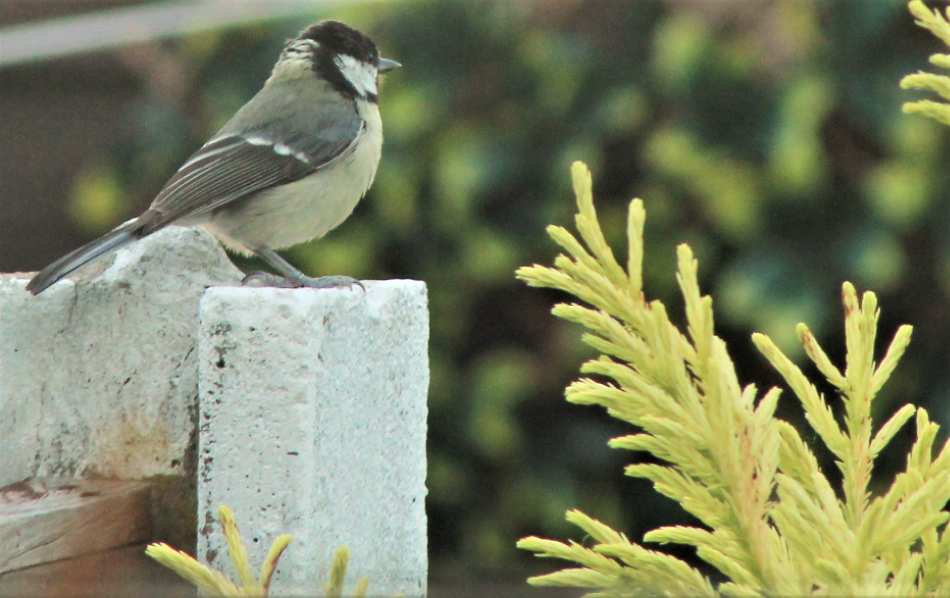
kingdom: Animalia
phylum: Chordata
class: Aves
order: Passeriformes
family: Paridae
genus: Parus
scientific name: Parus major
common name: Great tit
